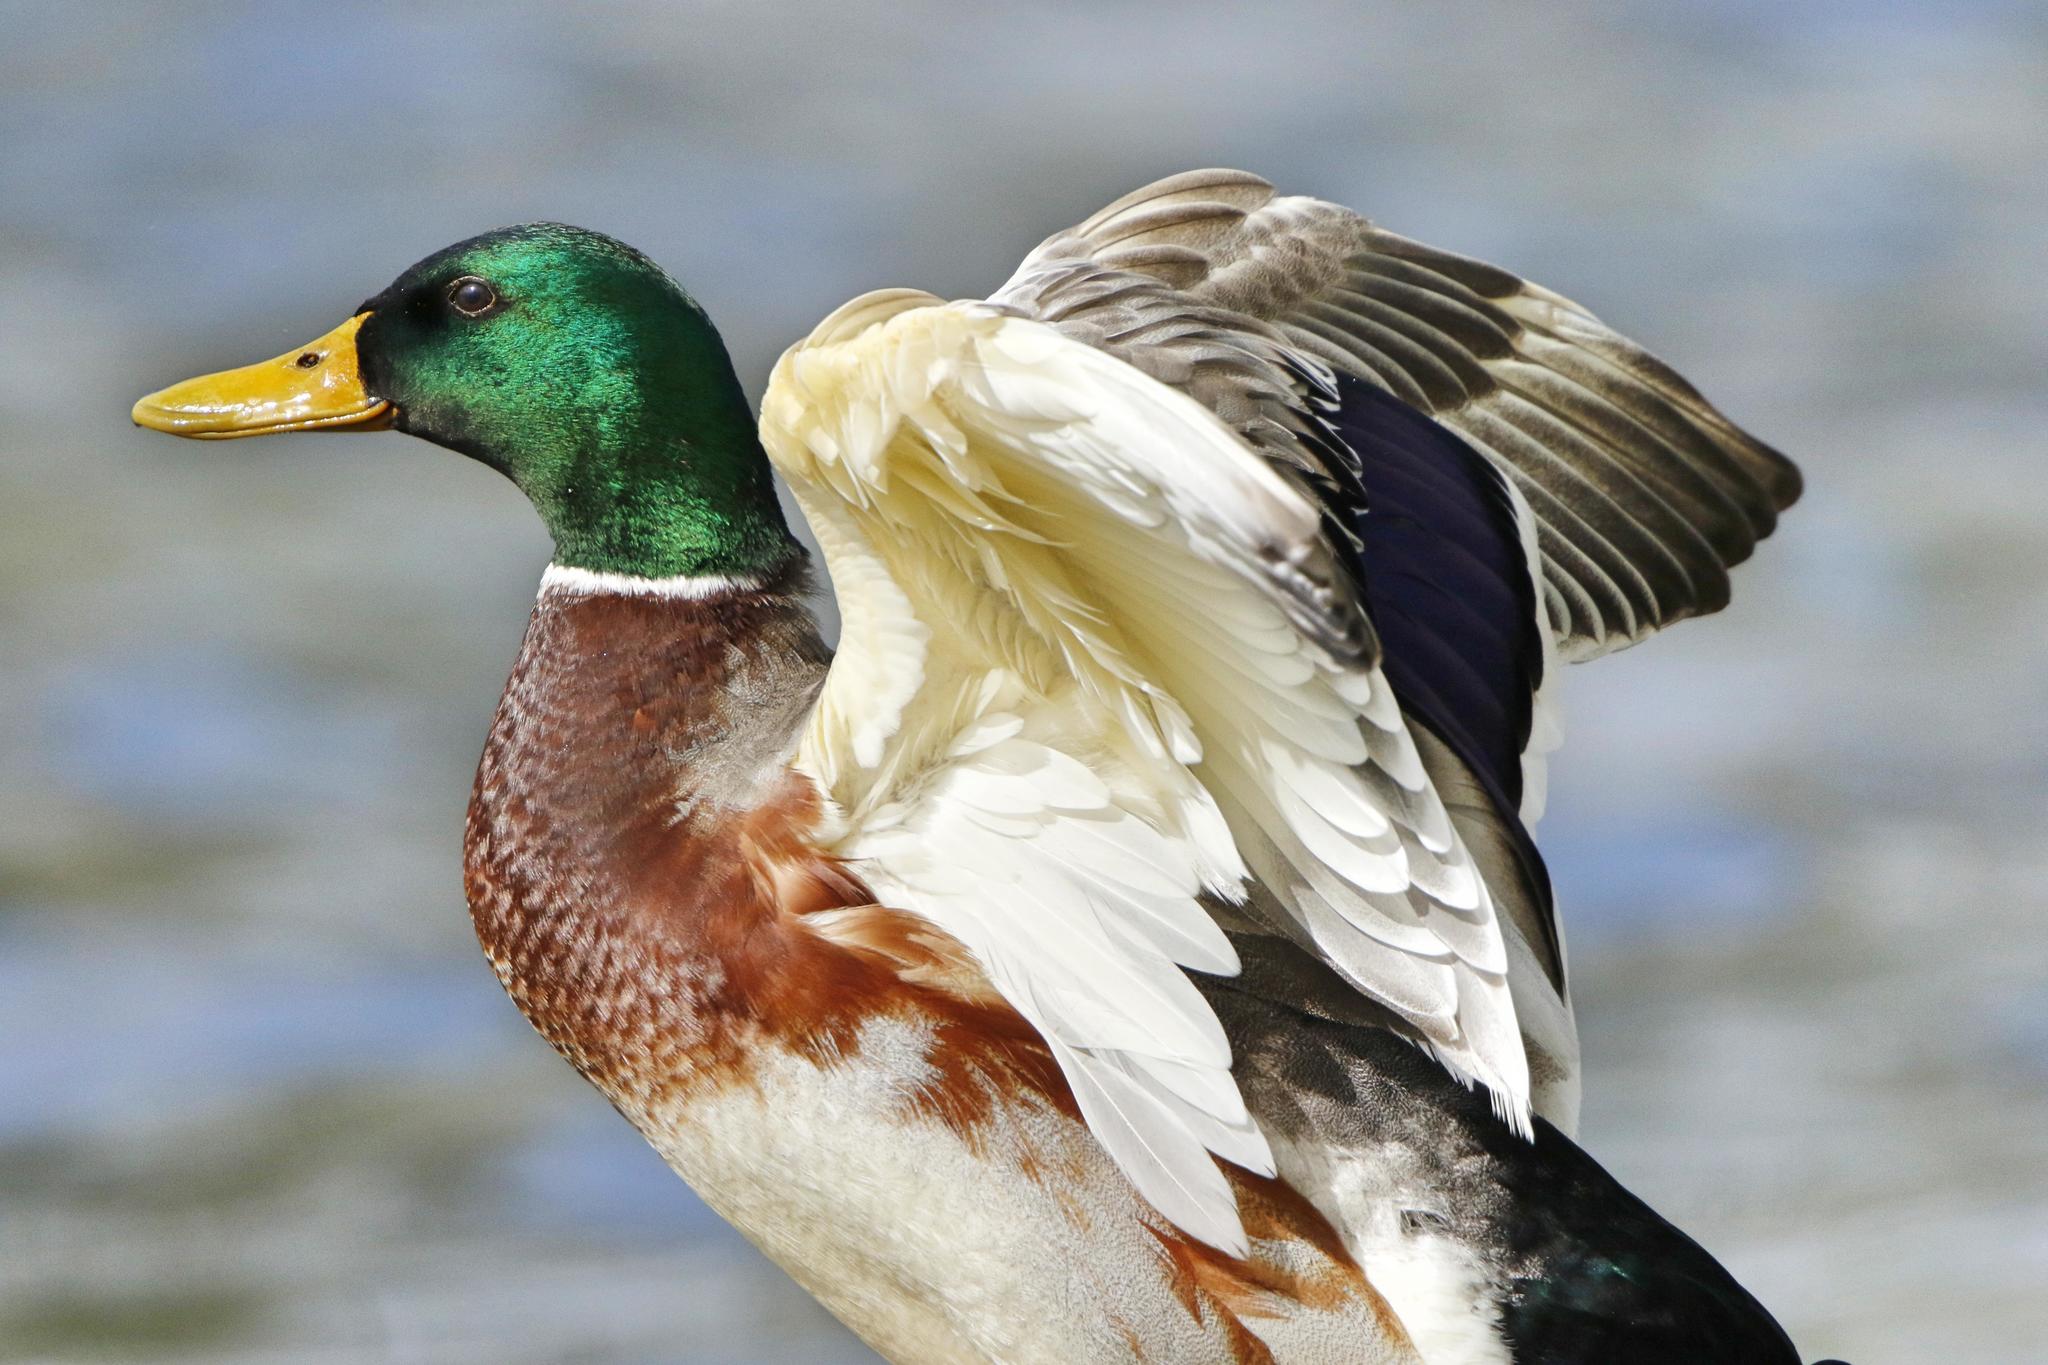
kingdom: Animalia
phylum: Chordata
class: Aves
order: Anseriformes
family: Anatidae
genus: Anas
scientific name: Anas platyrhynchos
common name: Mallard
